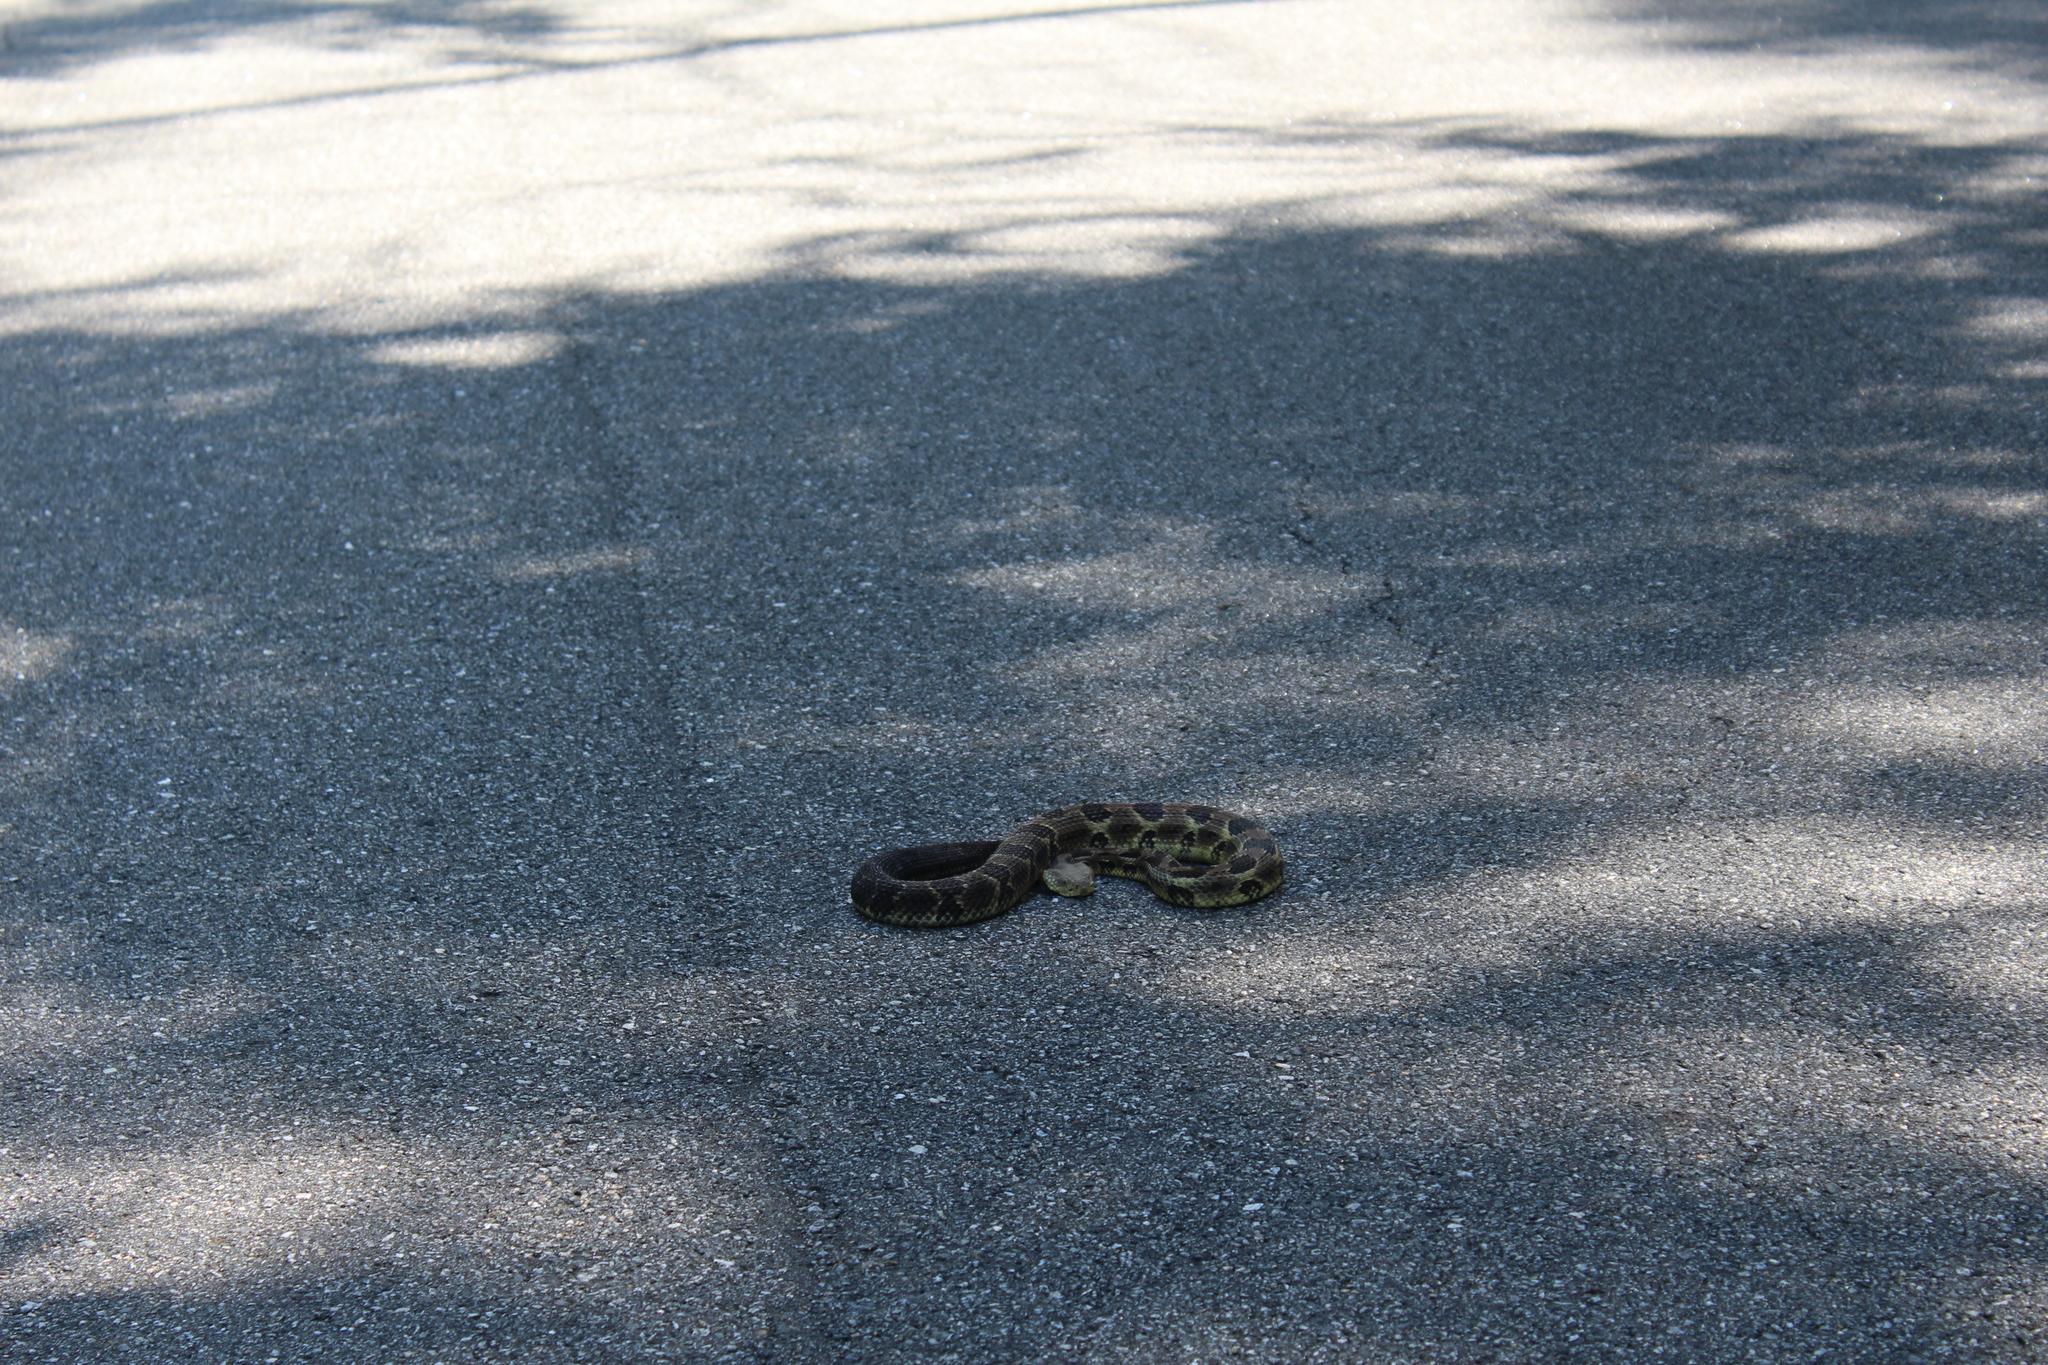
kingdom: Animalia
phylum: Chordata
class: Squamata
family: Viperidae
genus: Crotalus
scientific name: Crotalus horridus
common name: Timber rattlesnake
